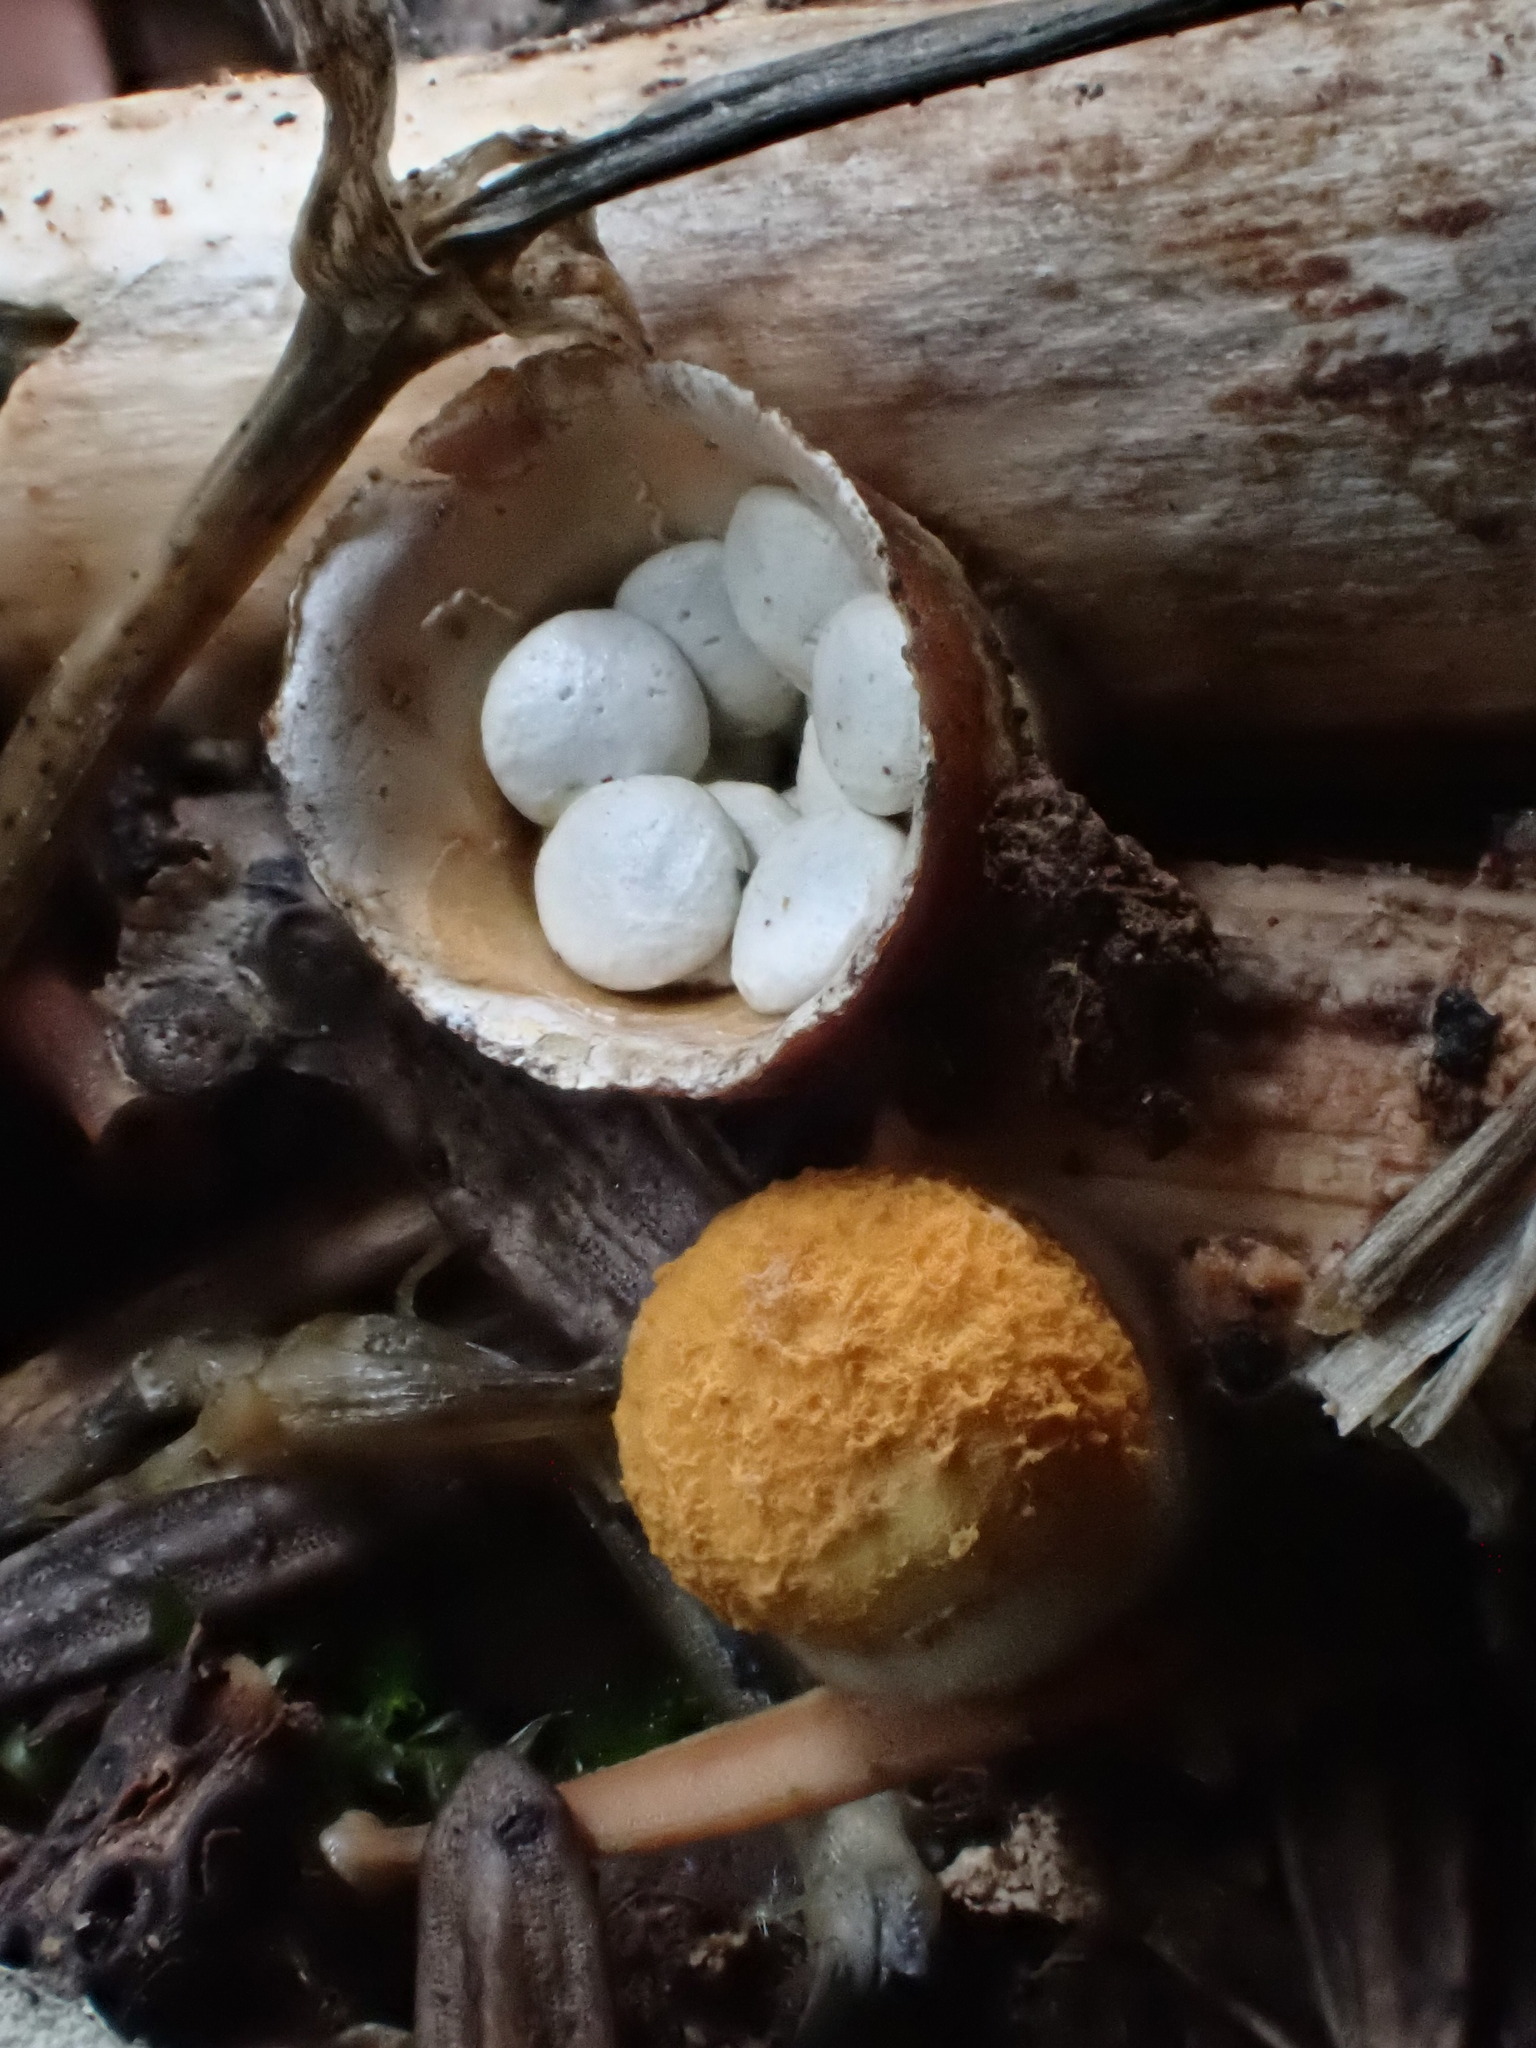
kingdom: Fungi
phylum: Basidiomycota
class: Agaricomycetes
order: Agaricales
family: Nidulariaceae
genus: Crucibulum
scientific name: Crucibulum laeve
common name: Common bird's nest
